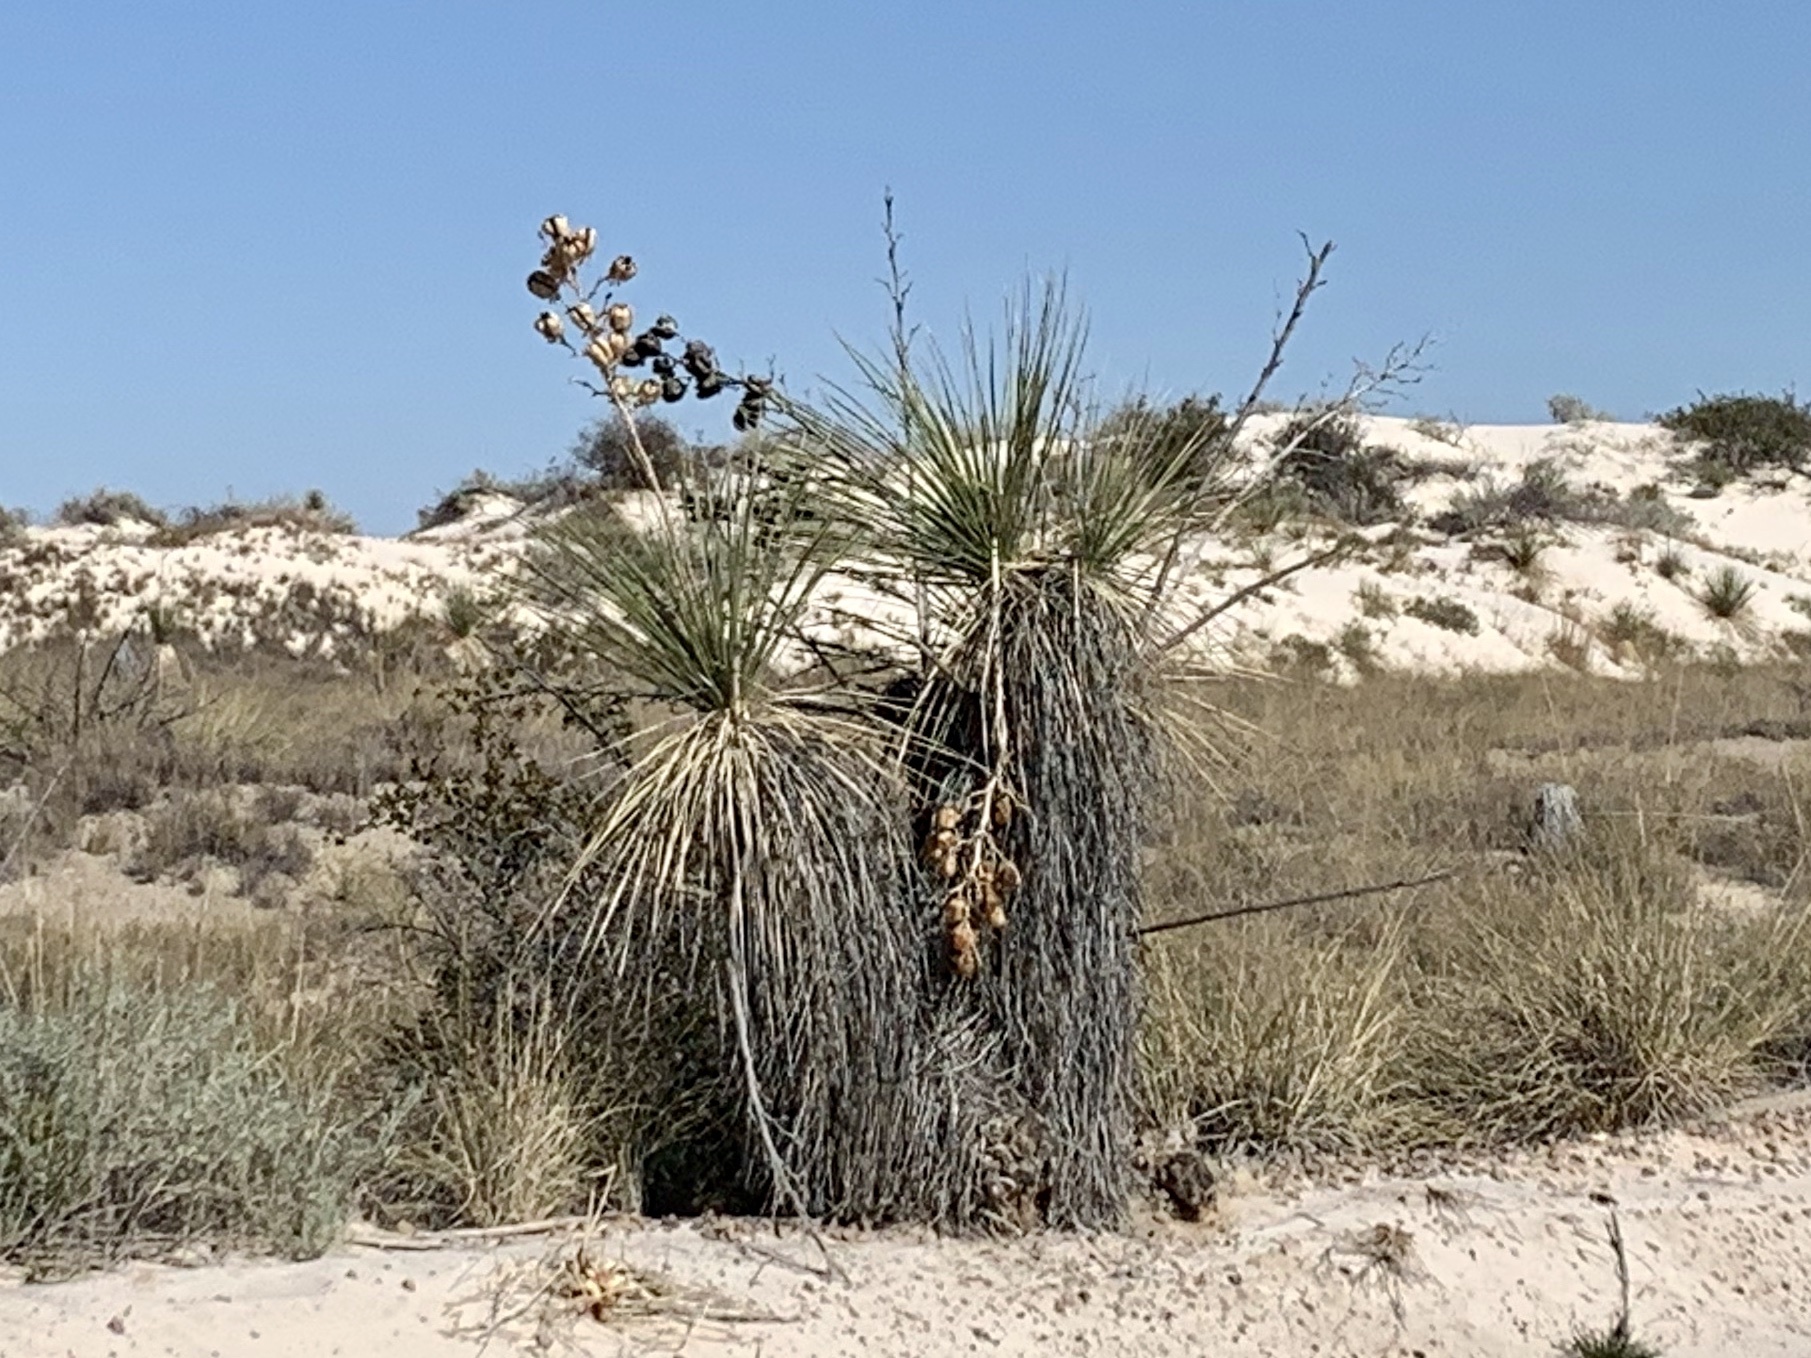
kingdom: Plantae
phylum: Tracheophyta
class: Liliopsida
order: Asparagales
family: Asparagaceae
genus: Yucca
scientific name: Yucca elata
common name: Palmella
